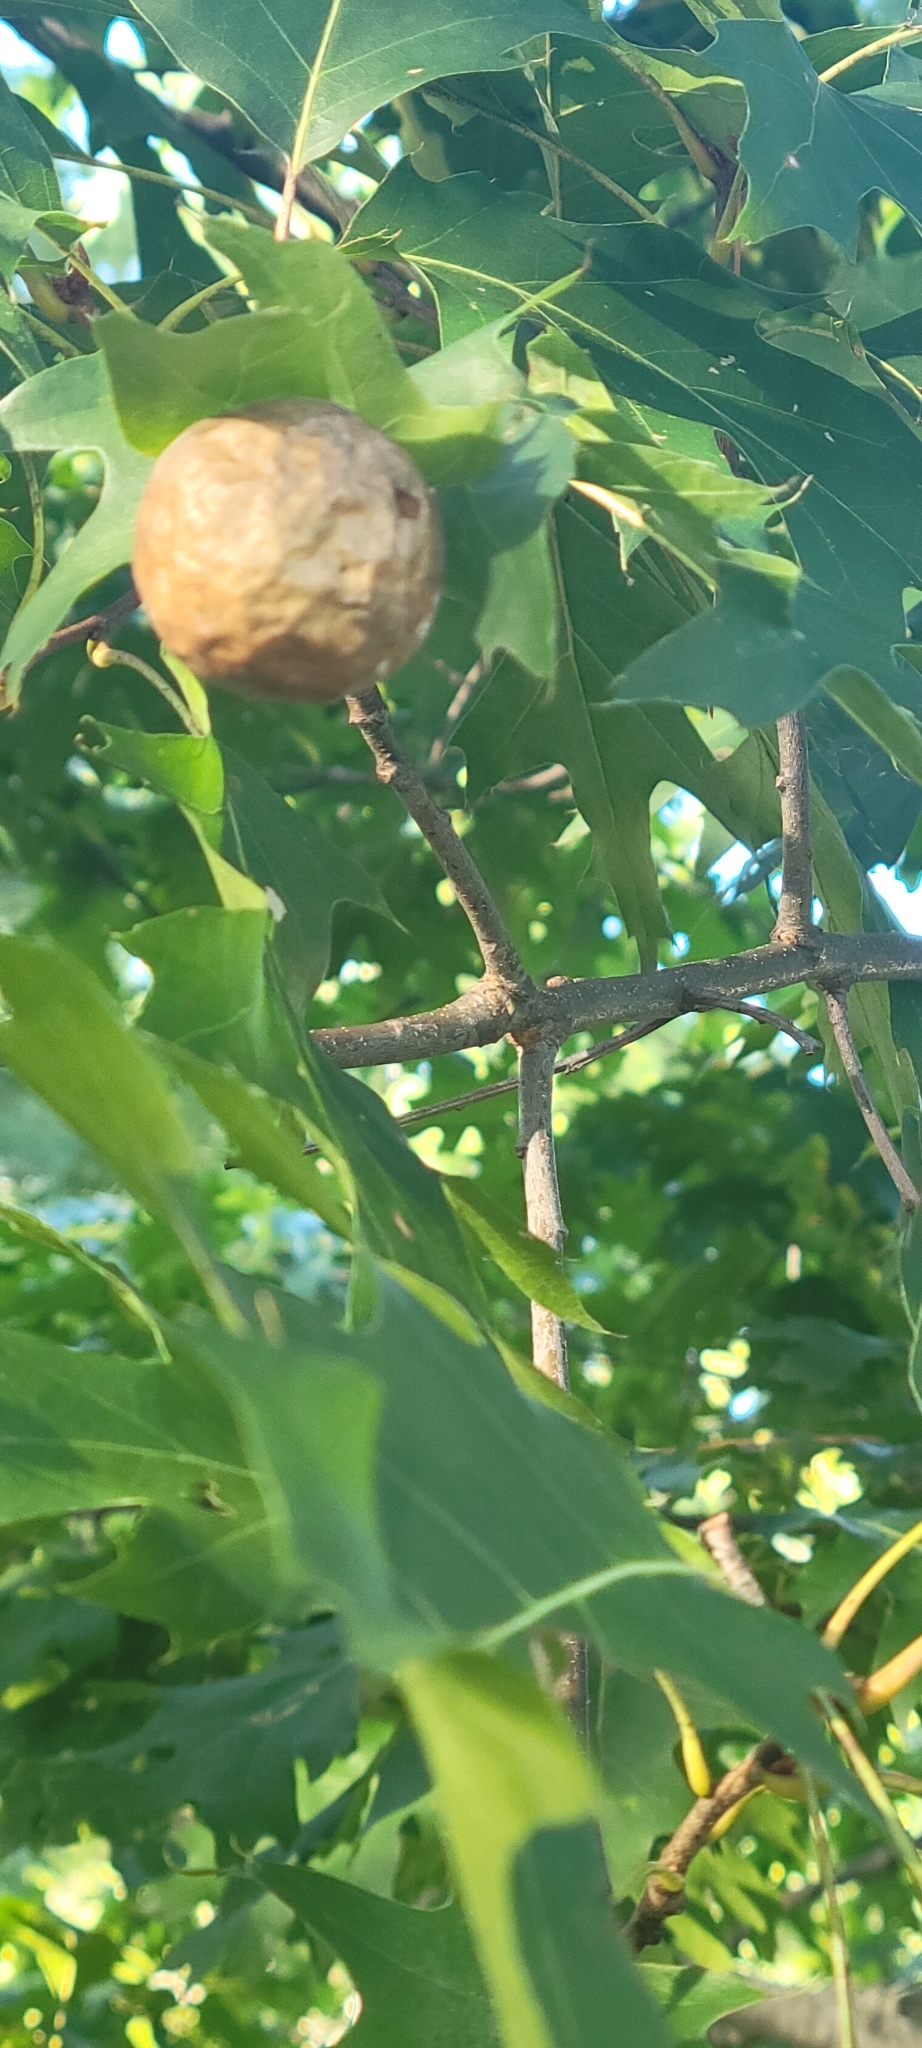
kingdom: Animalia
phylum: Arthropoda
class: Insecta
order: Hymenoptera
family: Cynipidae
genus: Amphibolips
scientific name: Amphibolips
